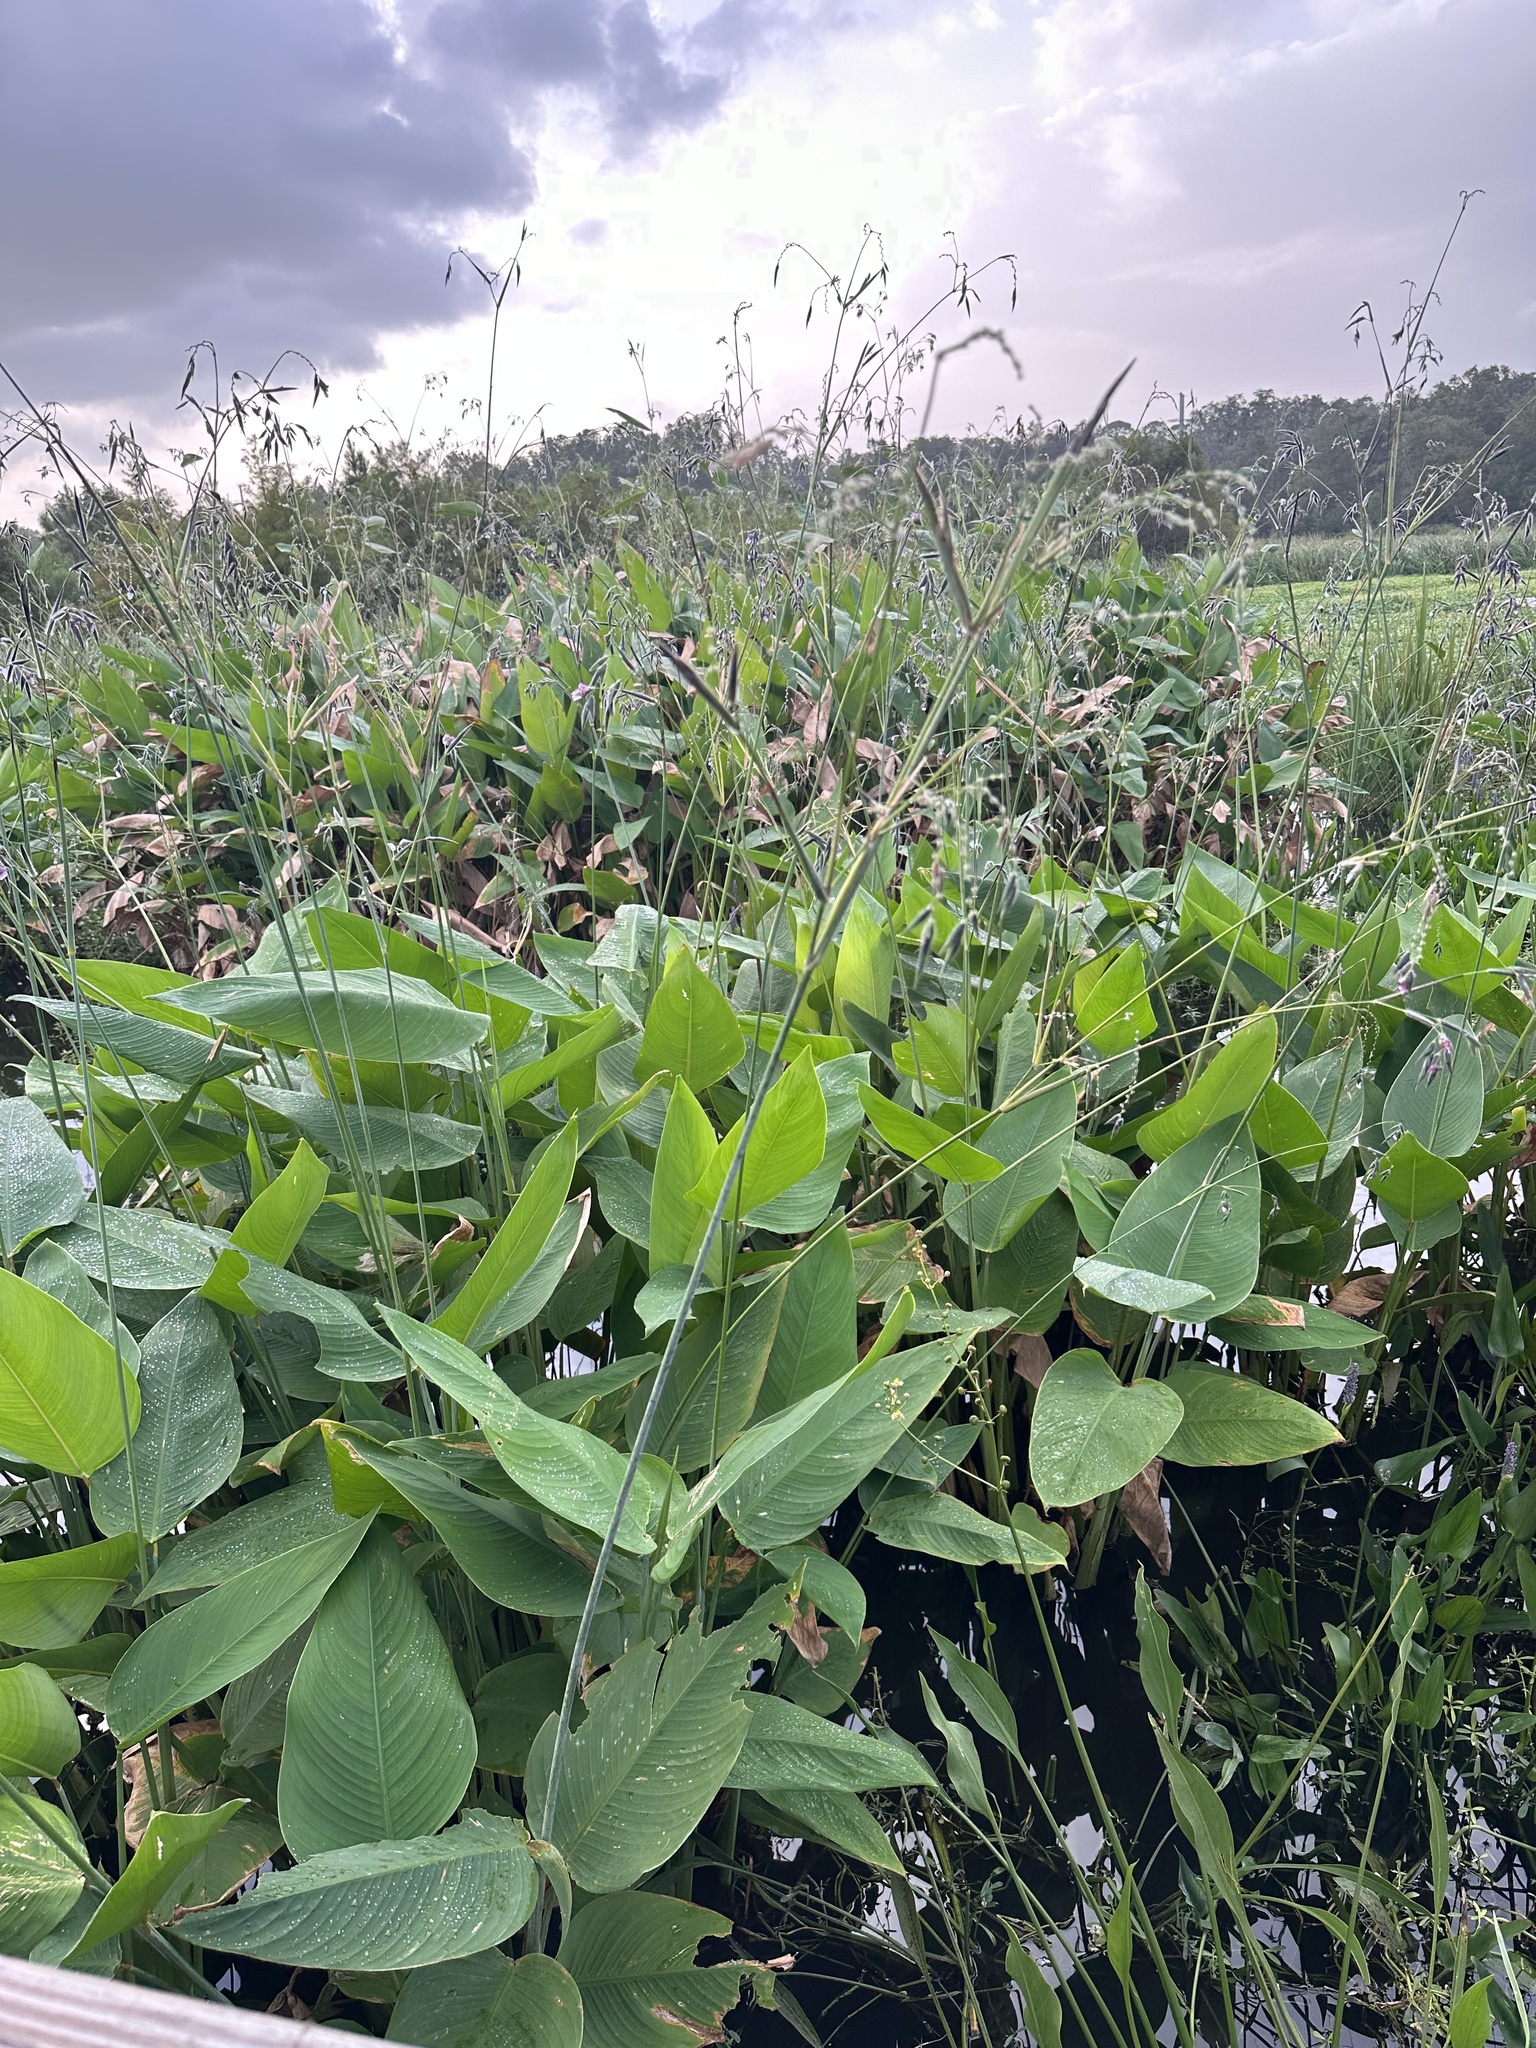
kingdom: Plantae
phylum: Tracheophyta
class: Liliopsida
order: Zingiberales
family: Marantaceae
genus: Thalia
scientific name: Thalia geniculata
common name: Arrowroot
